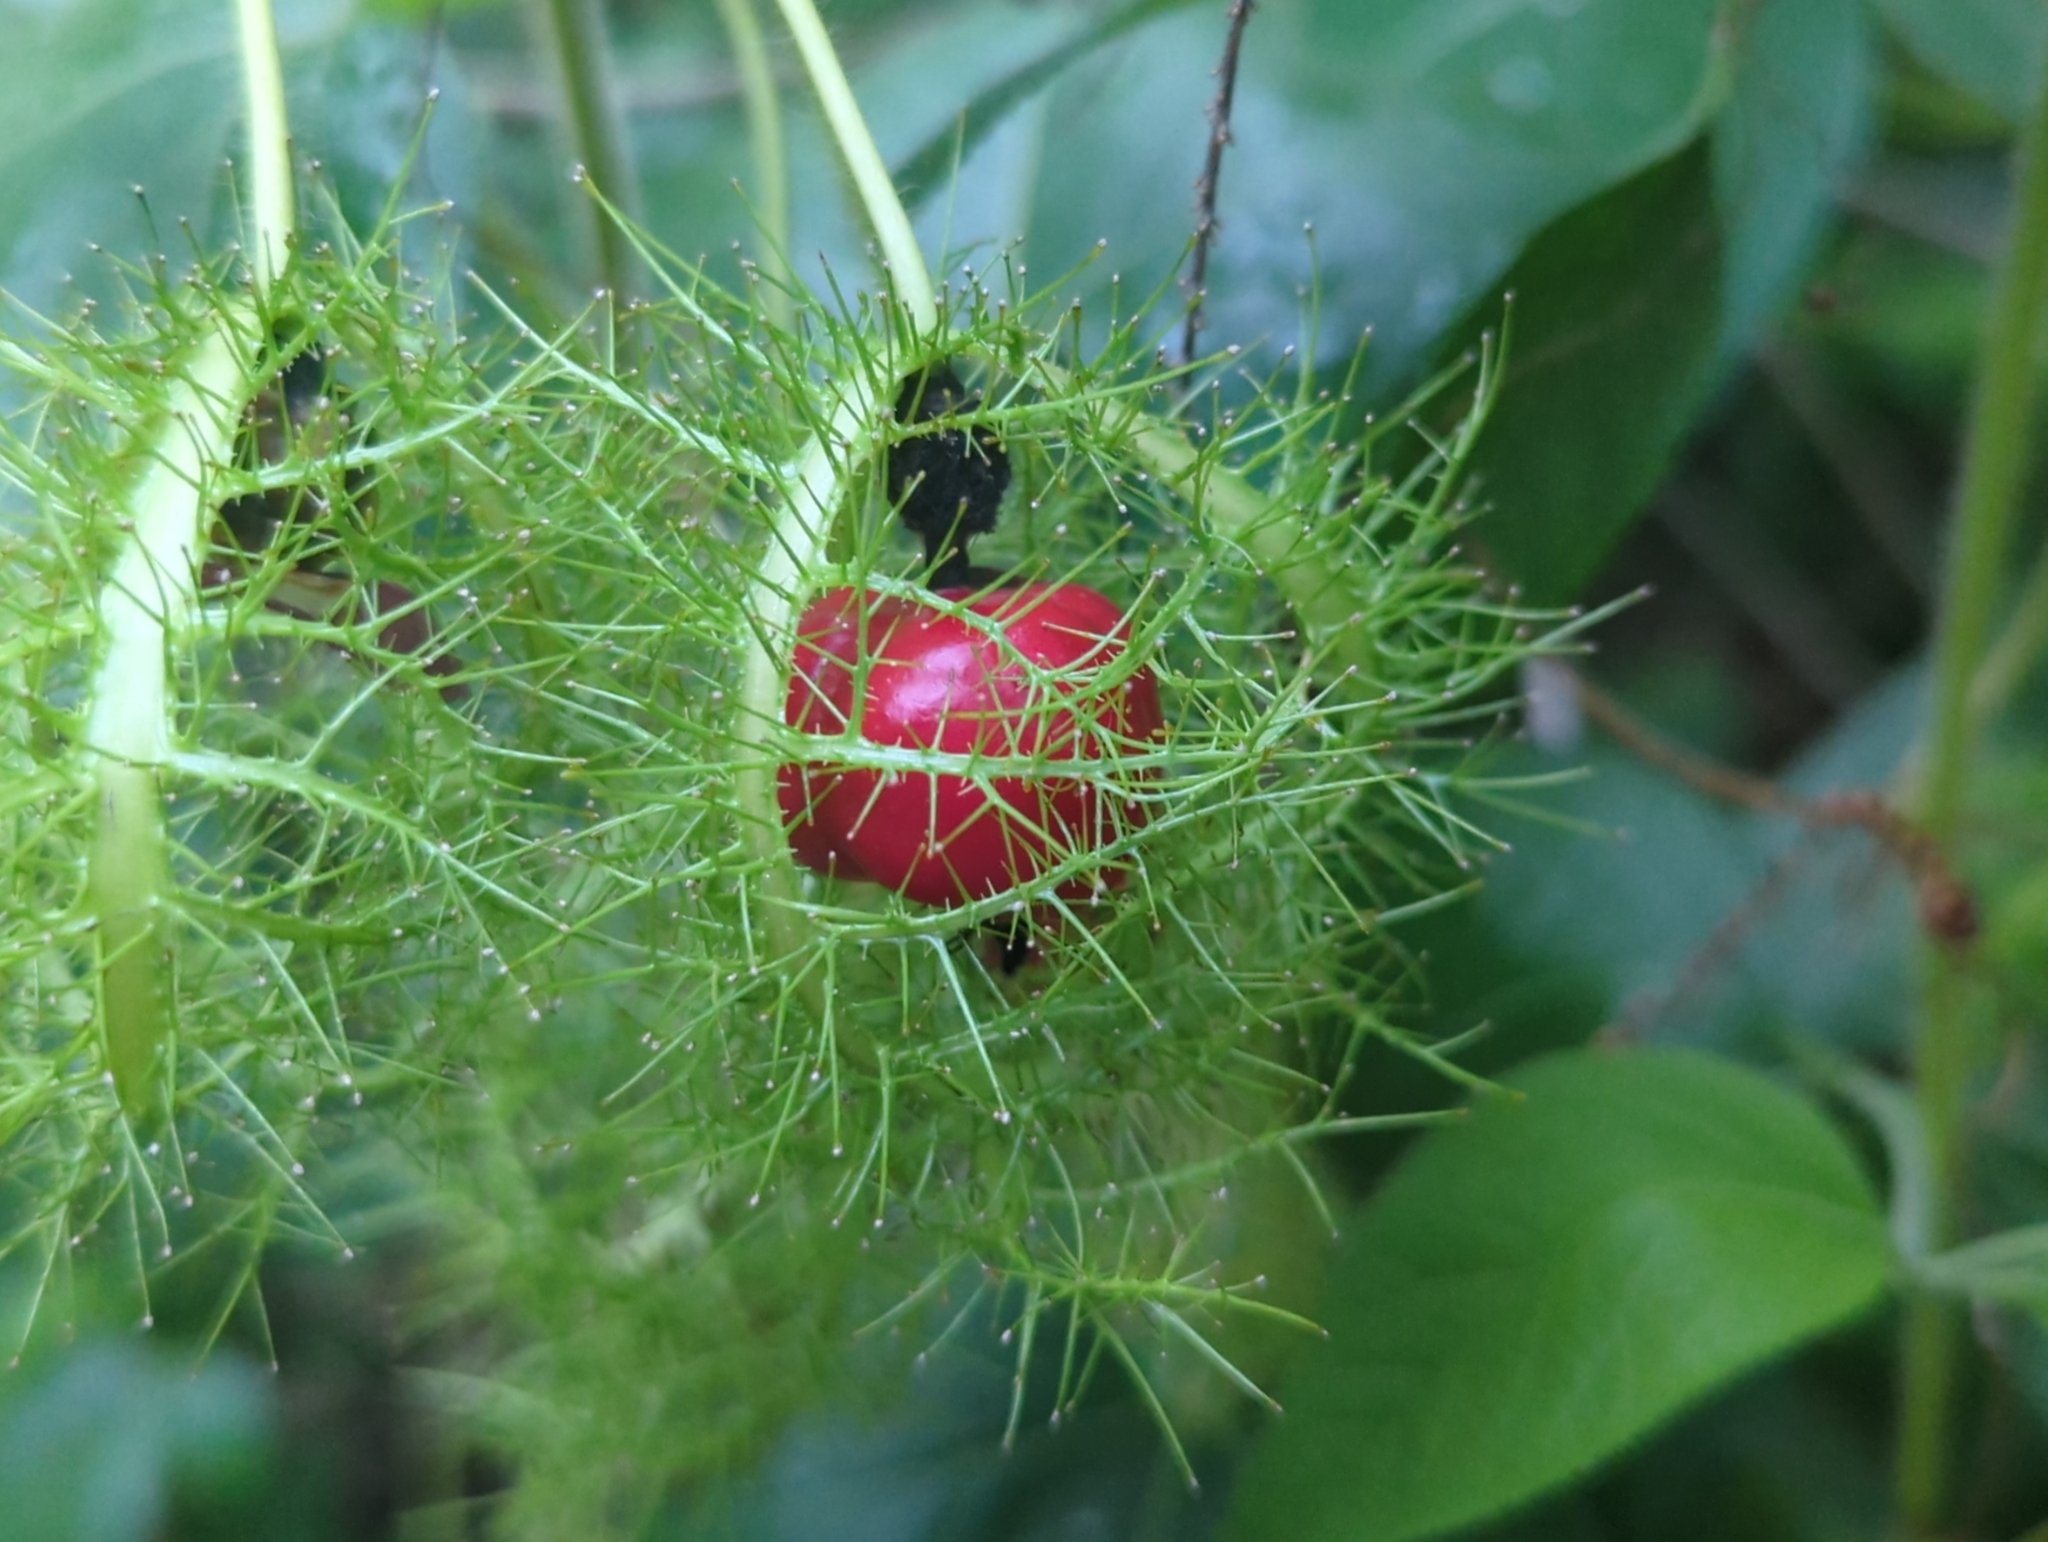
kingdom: Plantae
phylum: Tracheophyta
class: Magnoliopsida
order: Malpighiales
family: Passifloraceae
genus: Passiflora
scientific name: Passiflora
